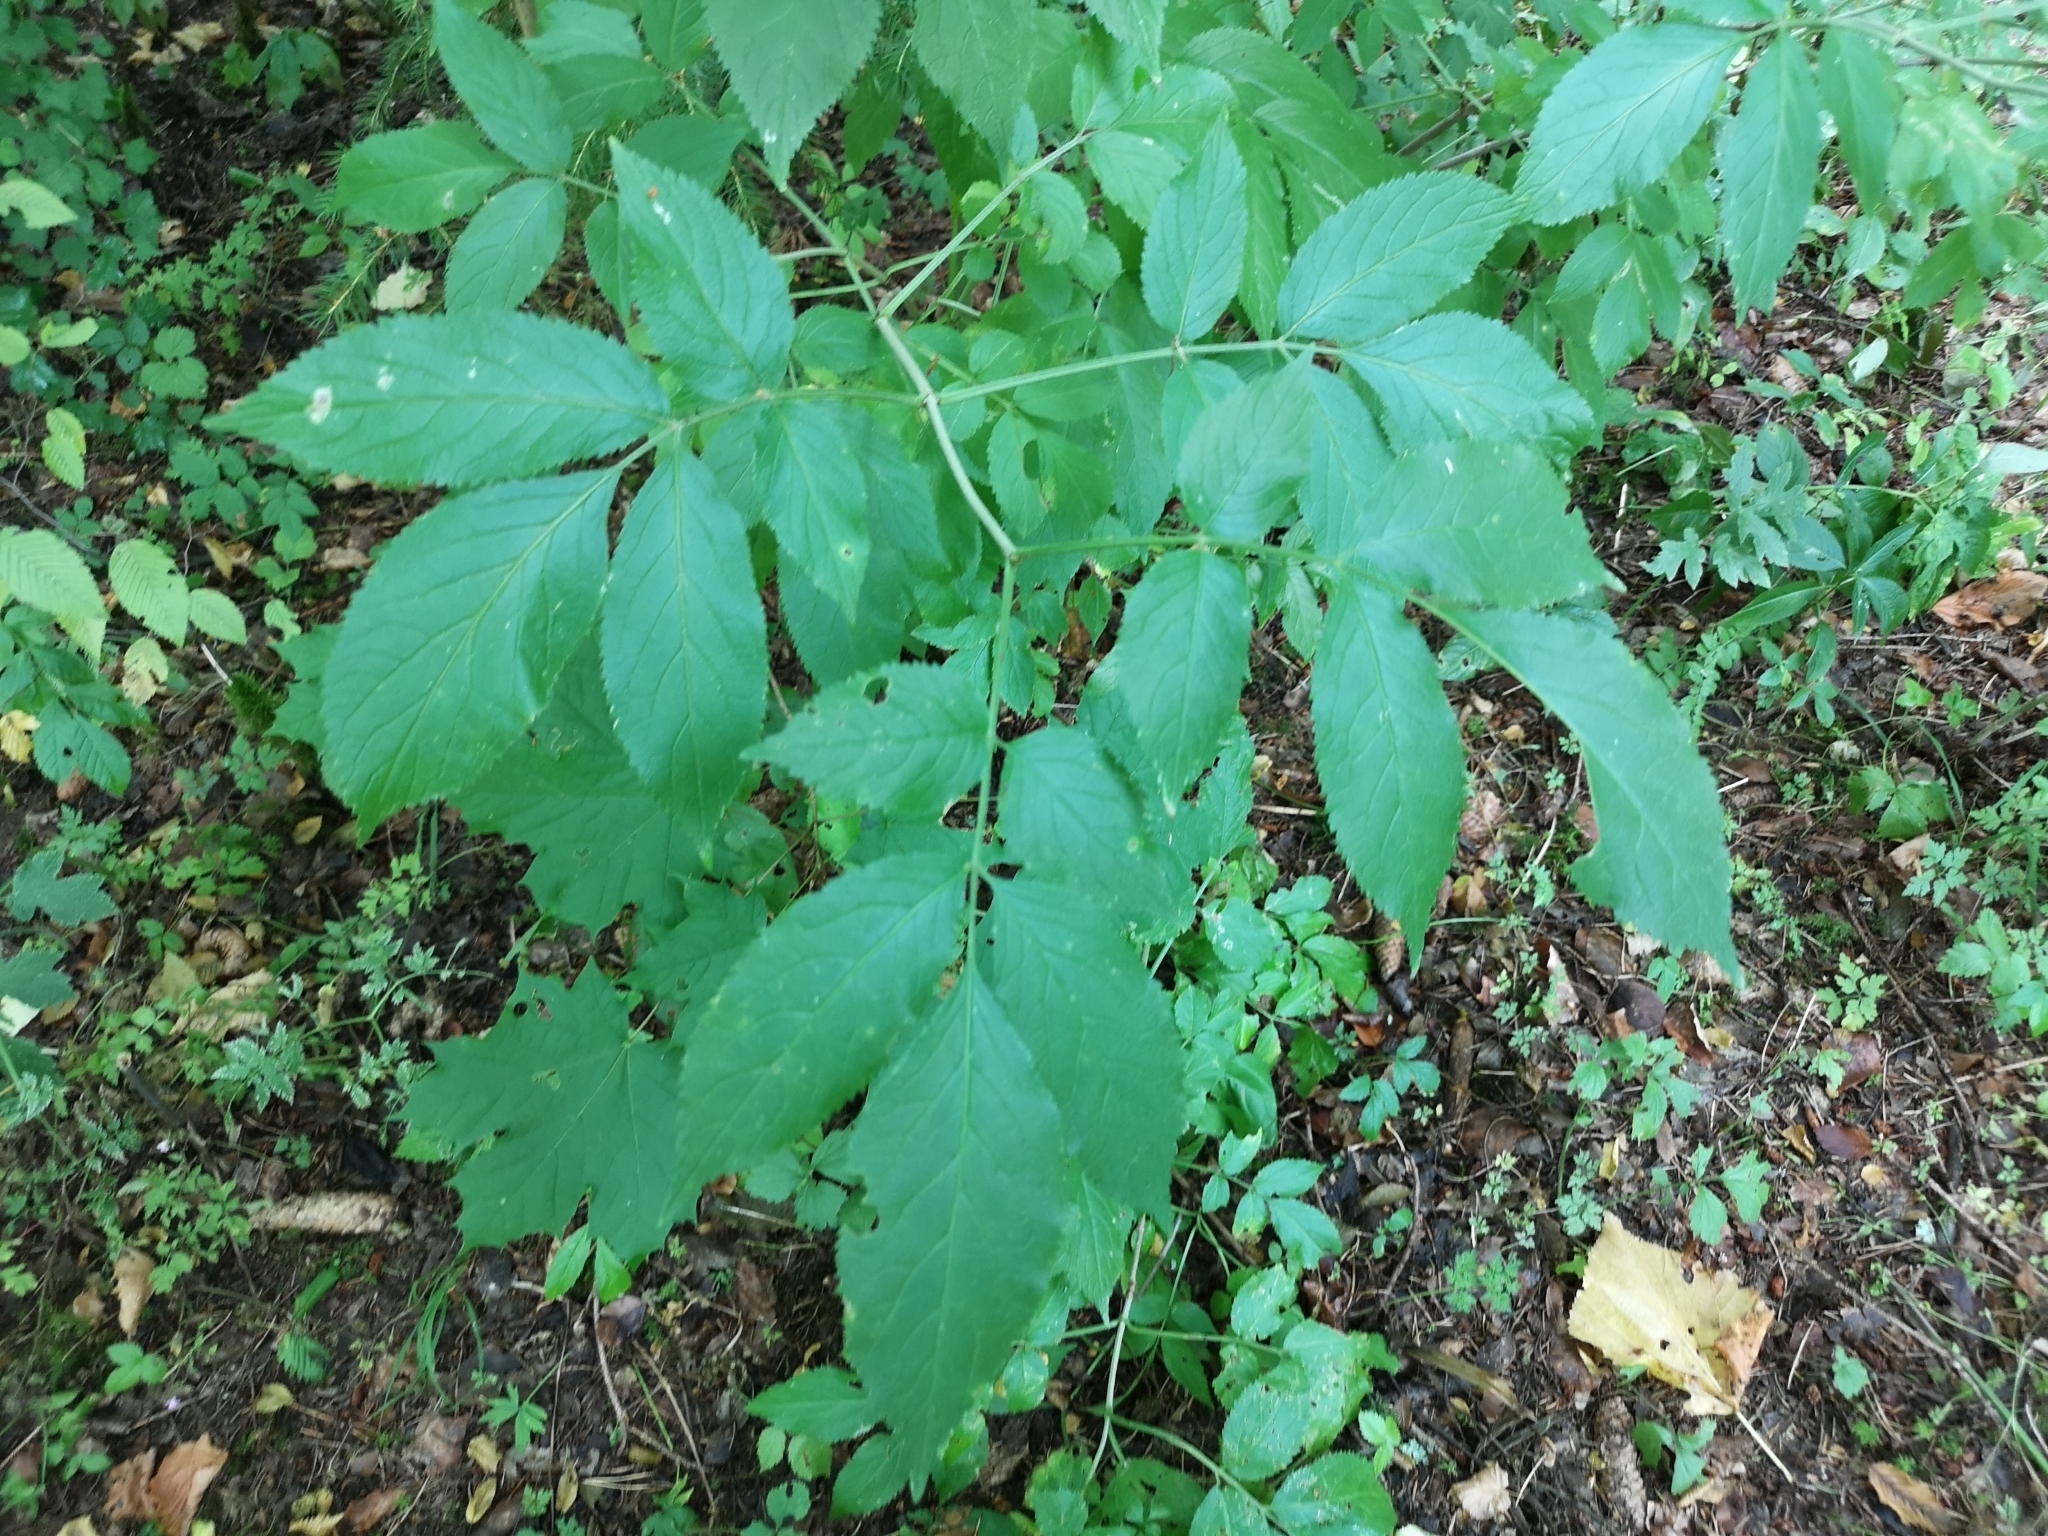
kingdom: Plantae
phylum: Tracheophyta
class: Magnoliopsida
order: Dipsacales
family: Viburnaceae
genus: Sambucus
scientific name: Sambucus nigra
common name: Elder
